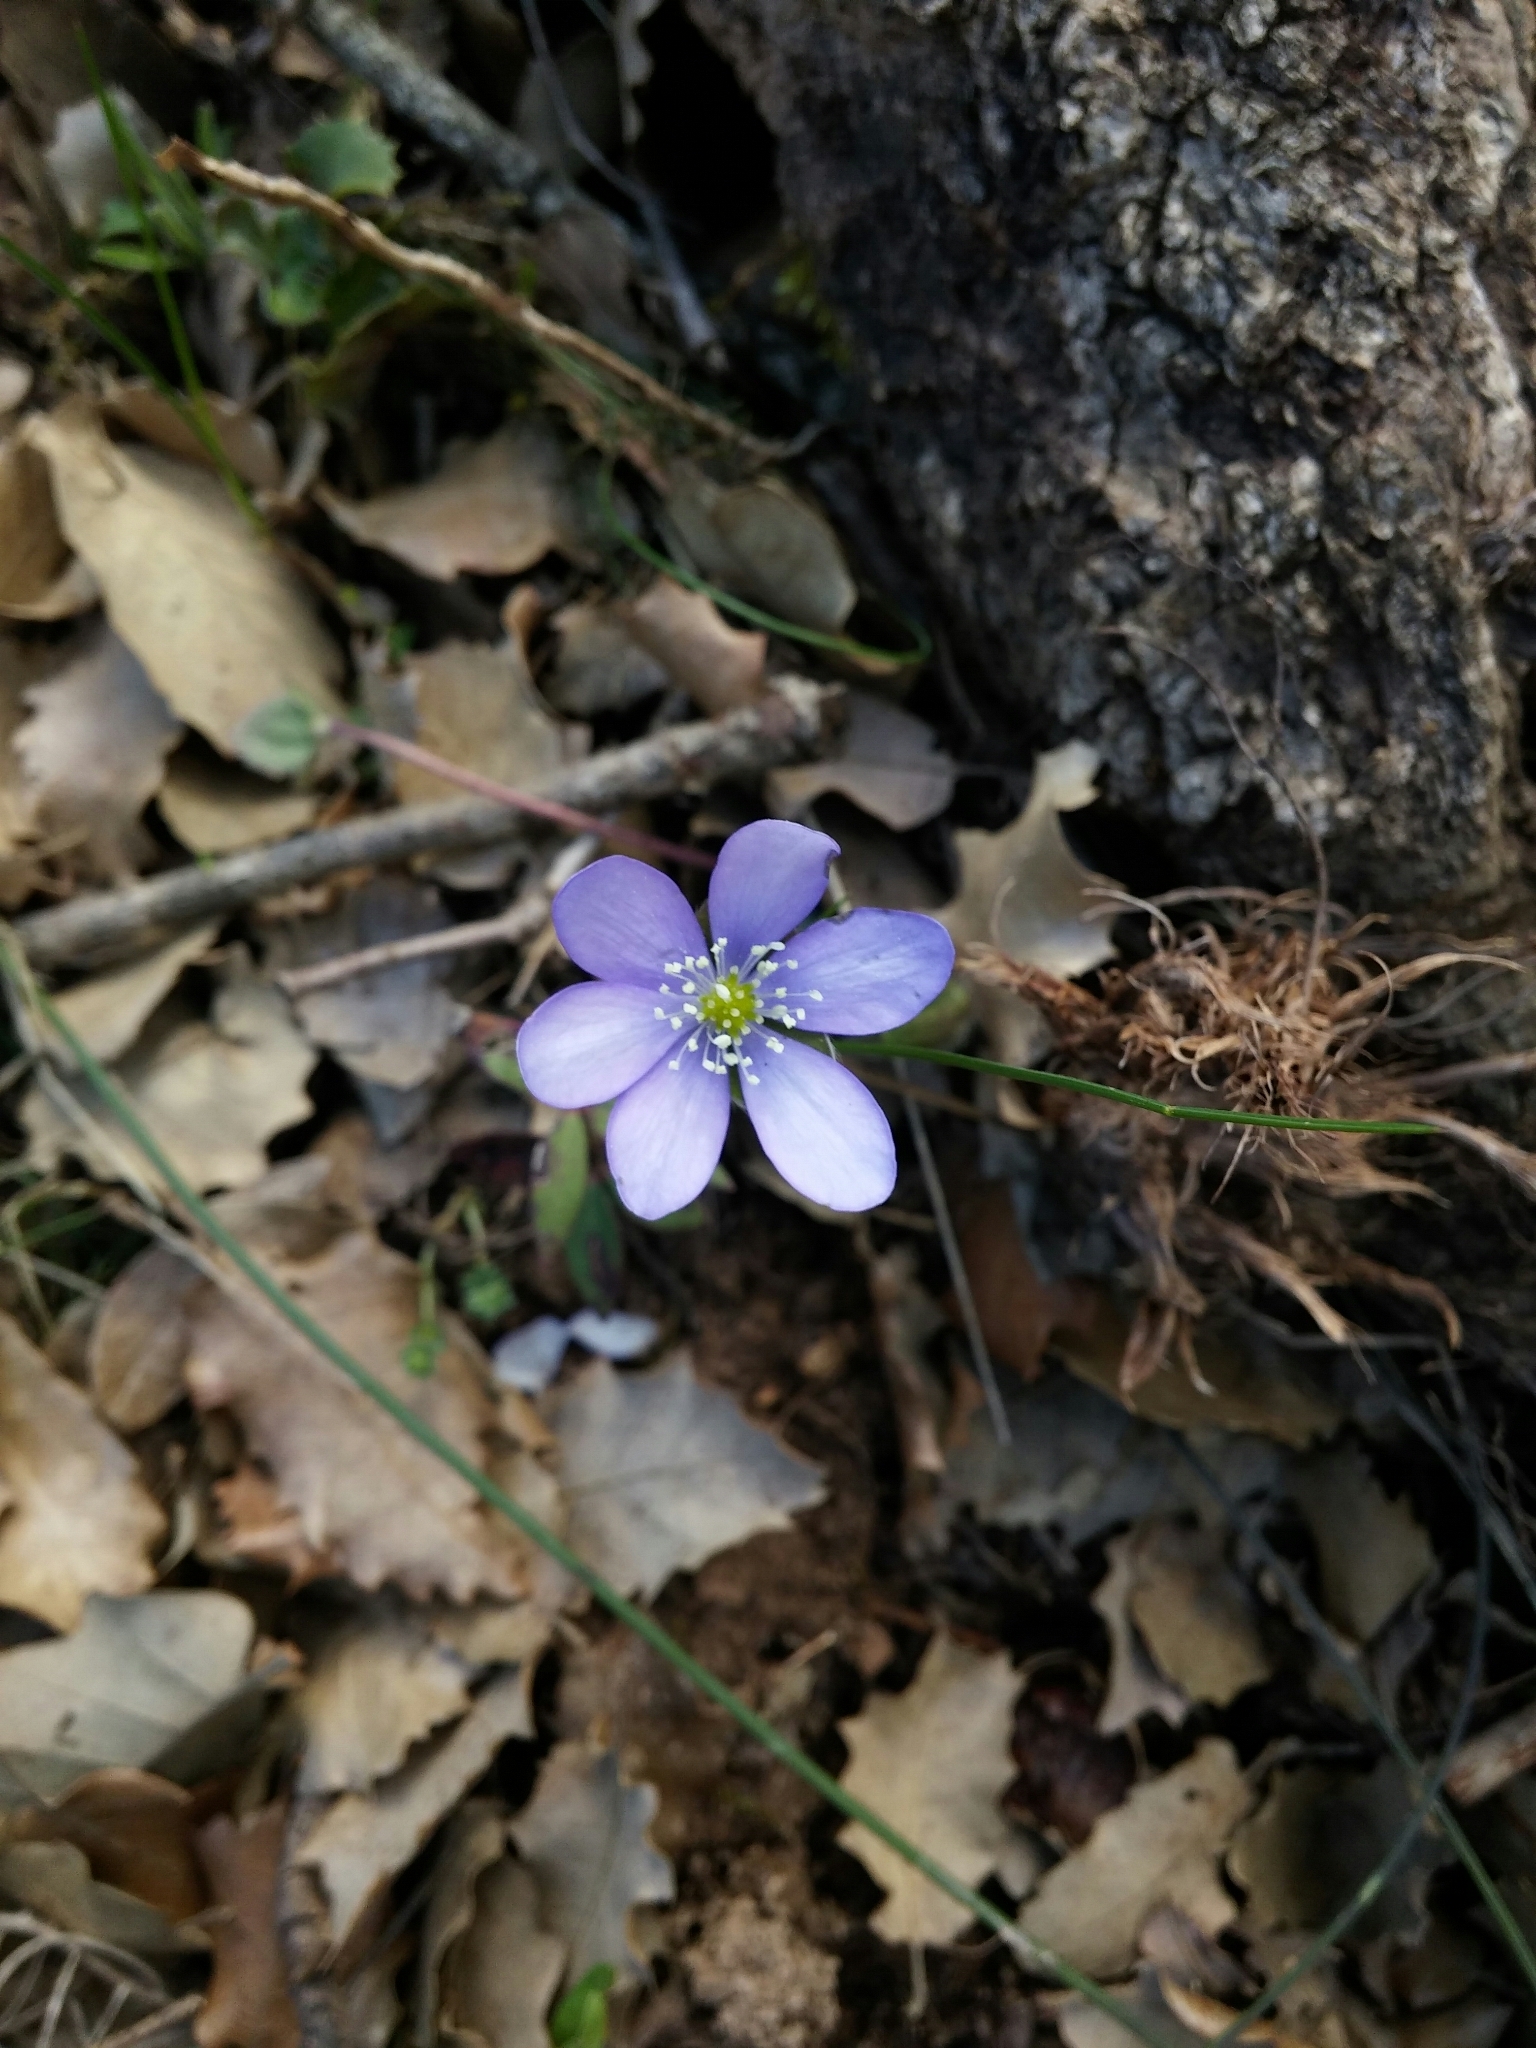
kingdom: Plantae
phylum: Tracheophyta
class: Magnoliopsida
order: Ranunculales
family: Ranunculaceae
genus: Hepatica
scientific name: Hepatica nobilis
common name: Liverleaf
